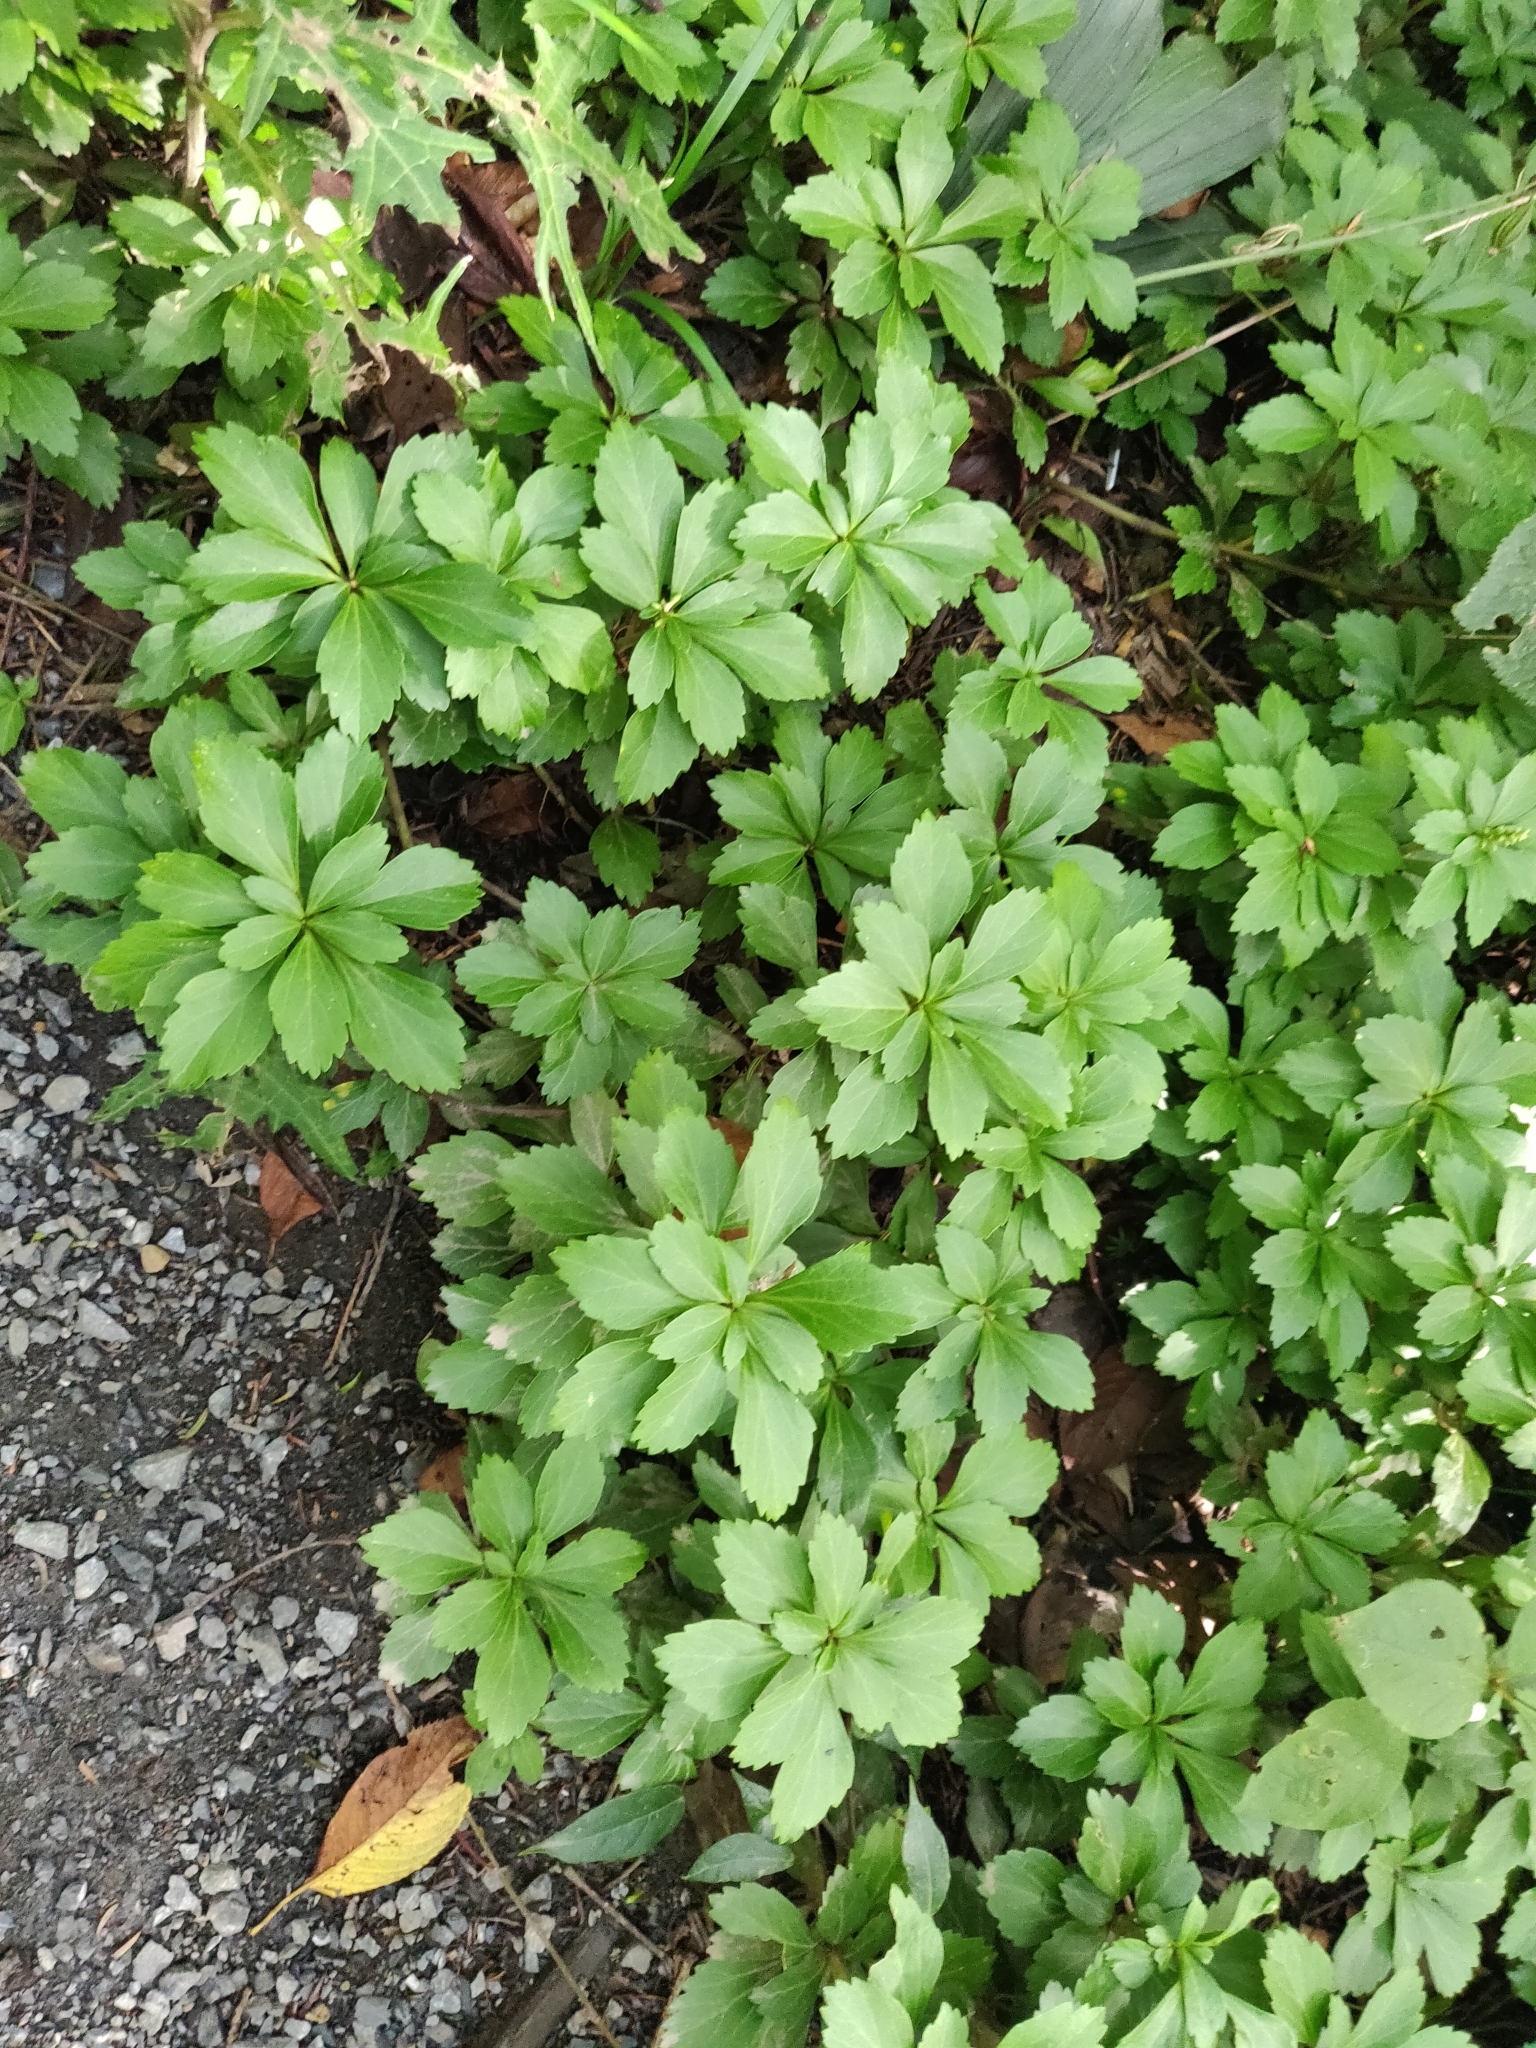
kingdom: Plantae
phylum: Tracheophyta
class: Magnoliopsida
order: Buxales
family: Buxaceae
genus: Pachysandra
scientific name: Pachysandra terminalis
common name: Japanese pachysandra
